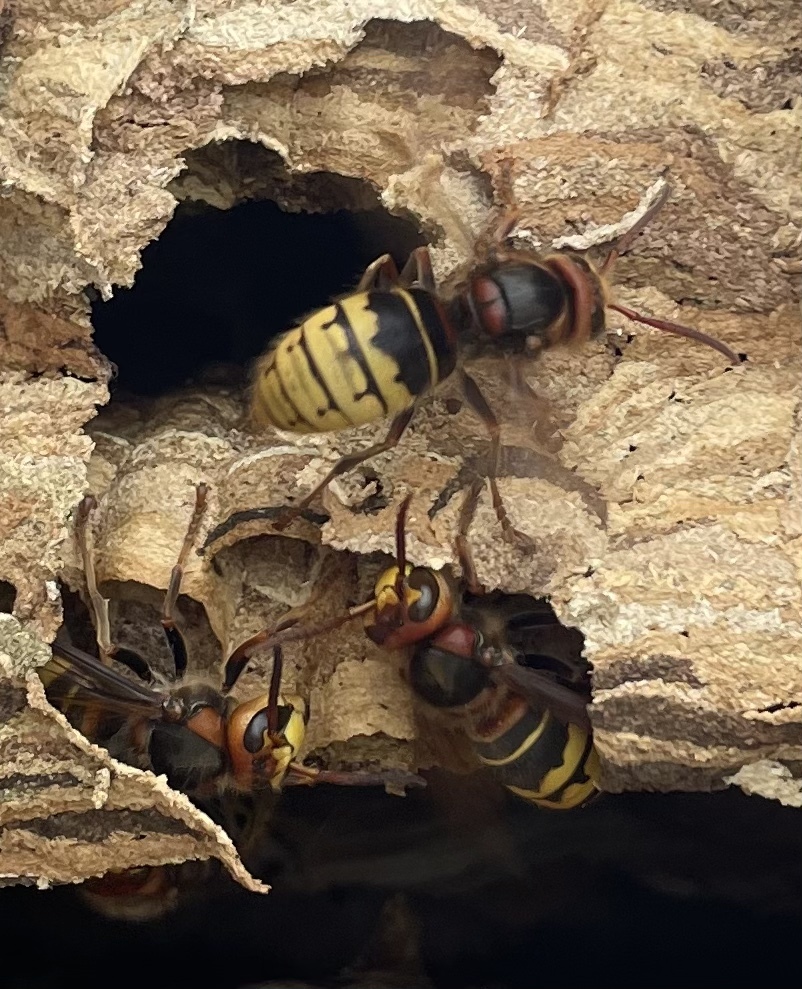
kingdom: Animalia
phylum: Arthropoda
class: Insecta
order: Hymenoptera
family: Vespidae
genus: Vespa
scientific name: Vespa crabro
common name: Hornet
